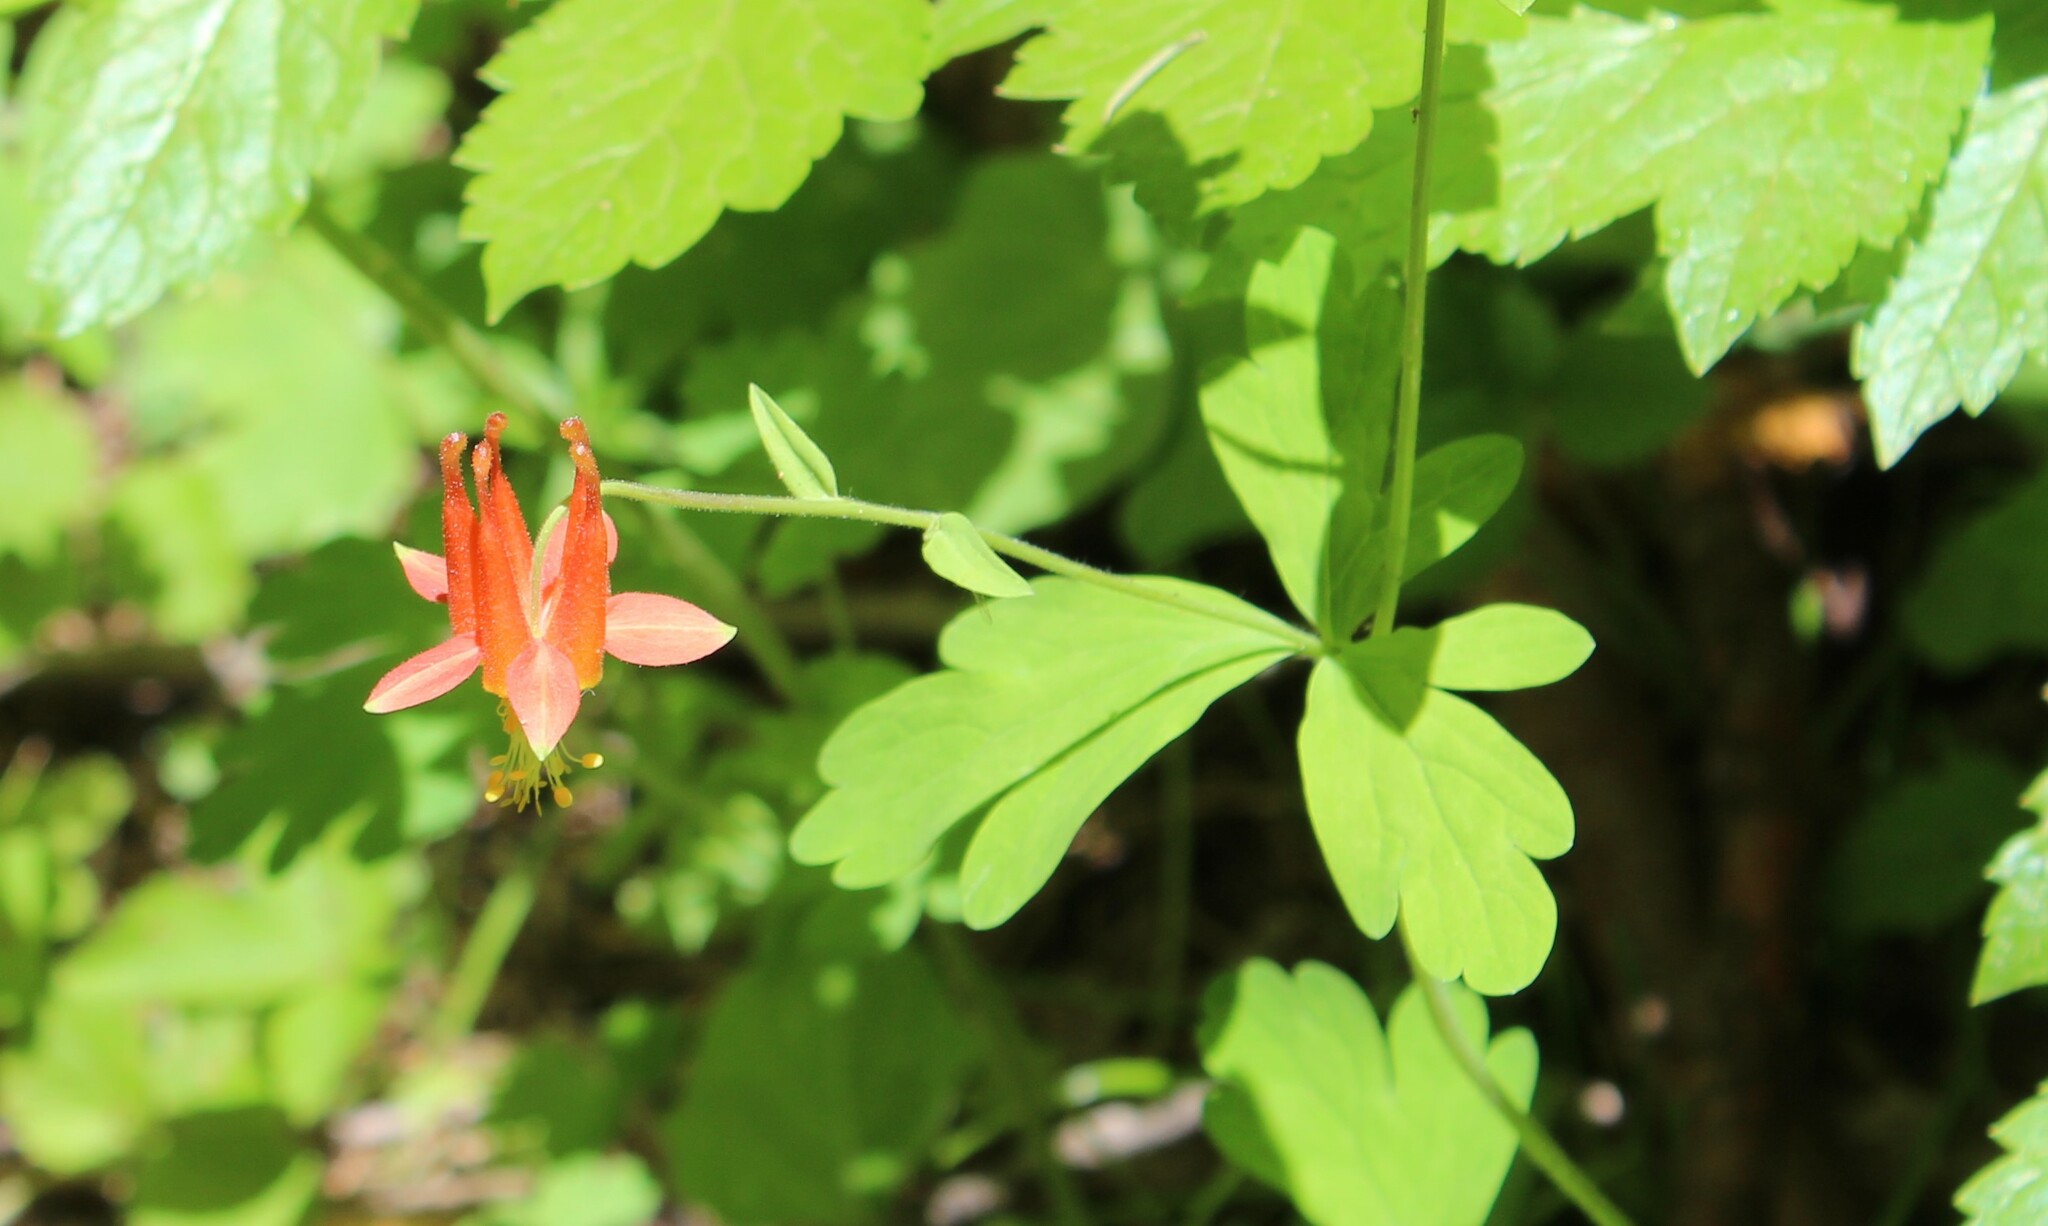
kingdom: Plantae
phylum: Tracheophyta
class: Magnoliopsida
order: Ranunculales
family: Ranunculaceae
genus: Aquilegia
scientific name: Aquilegia formosa
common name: Sitka columbine
